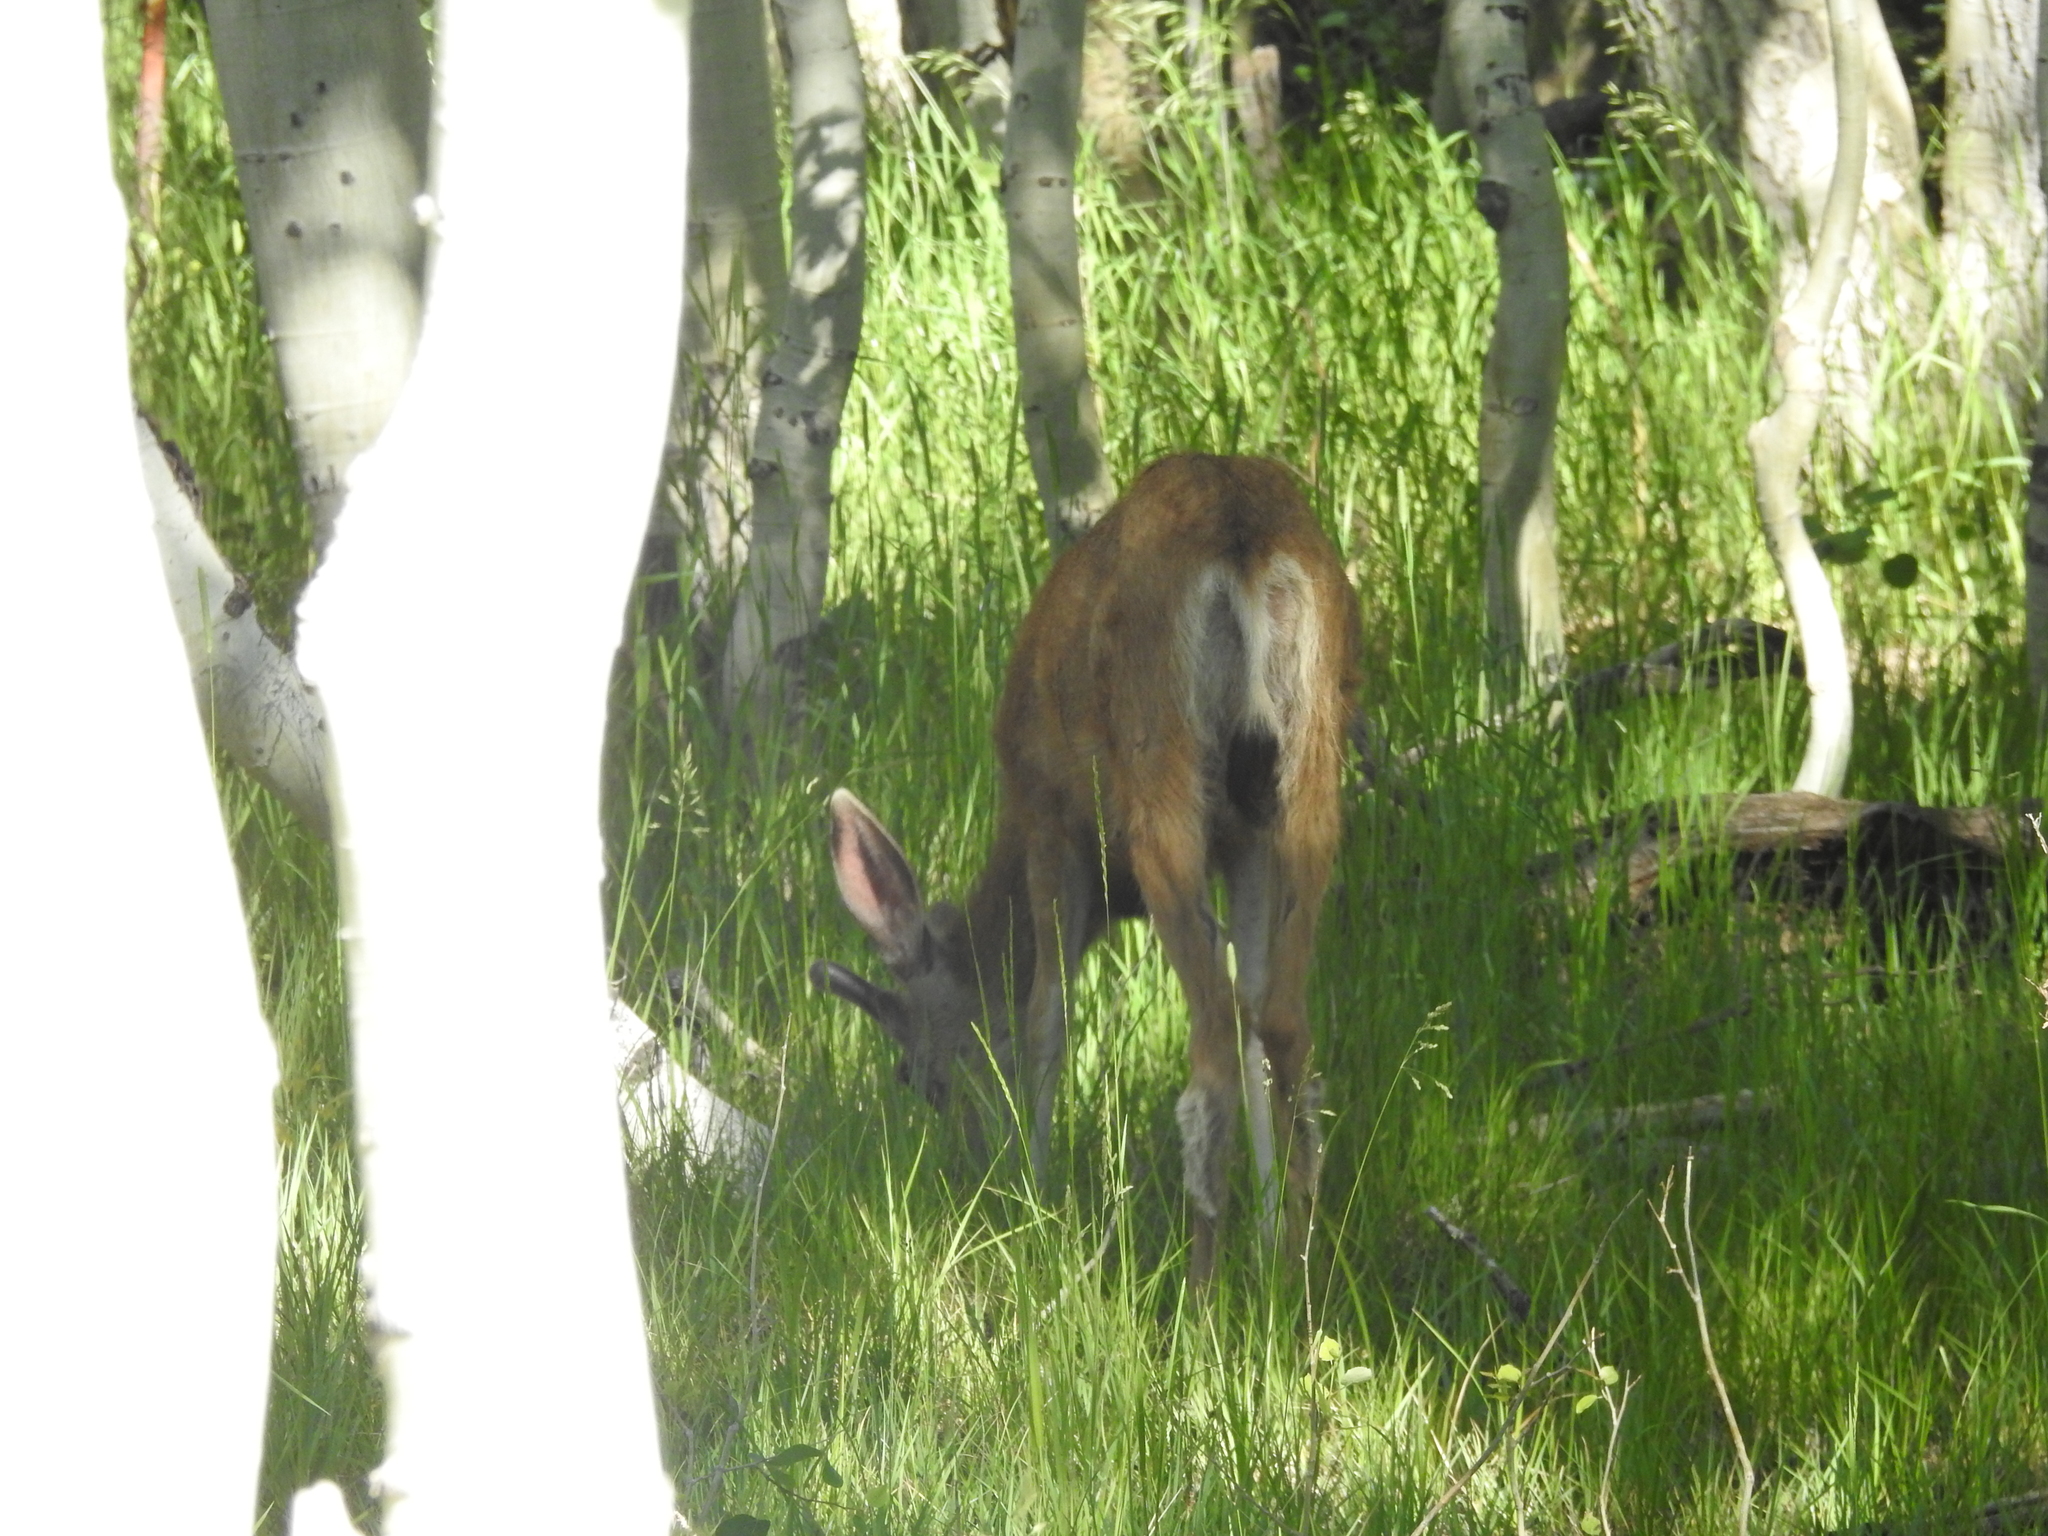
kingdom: Animalia
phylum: Chordata
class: Mammalia
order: Artiodactyla
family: Cervidae
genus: Odocoileus
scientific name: Odocoileus hemionus
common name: Mule deer
